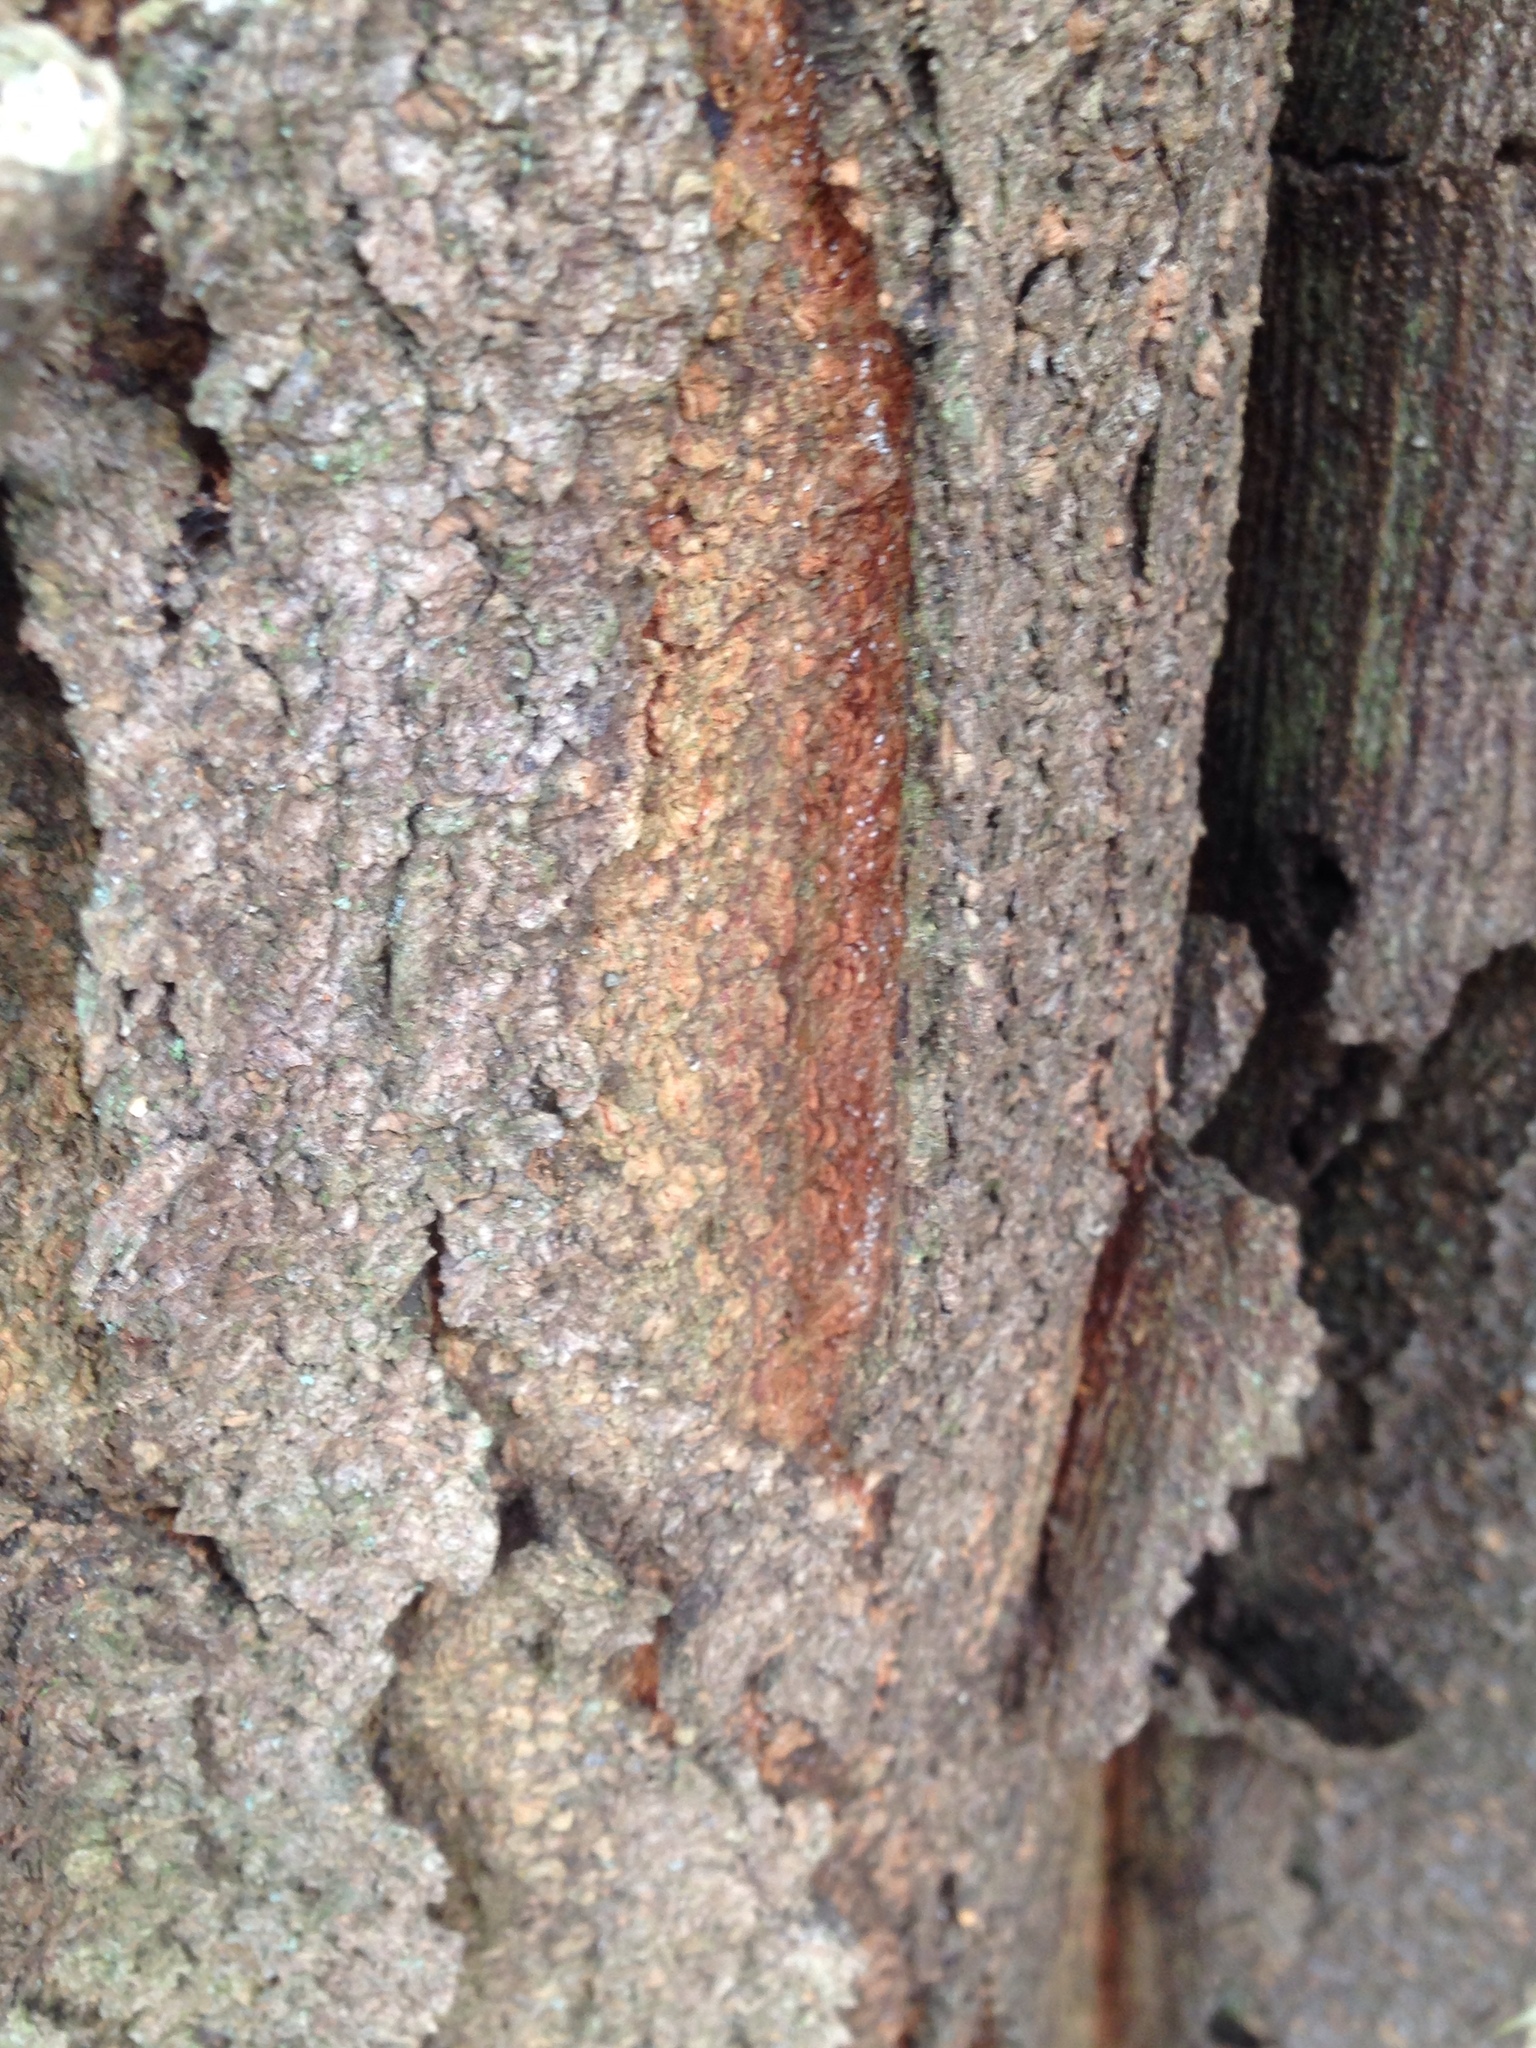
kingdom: Plantae
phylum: Tracheophyta
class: Magnoliopsida
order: Fabales
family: Fabaceae
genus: Gleditsia
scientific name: Gleditsia triacanthos
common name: Common honeylocust
